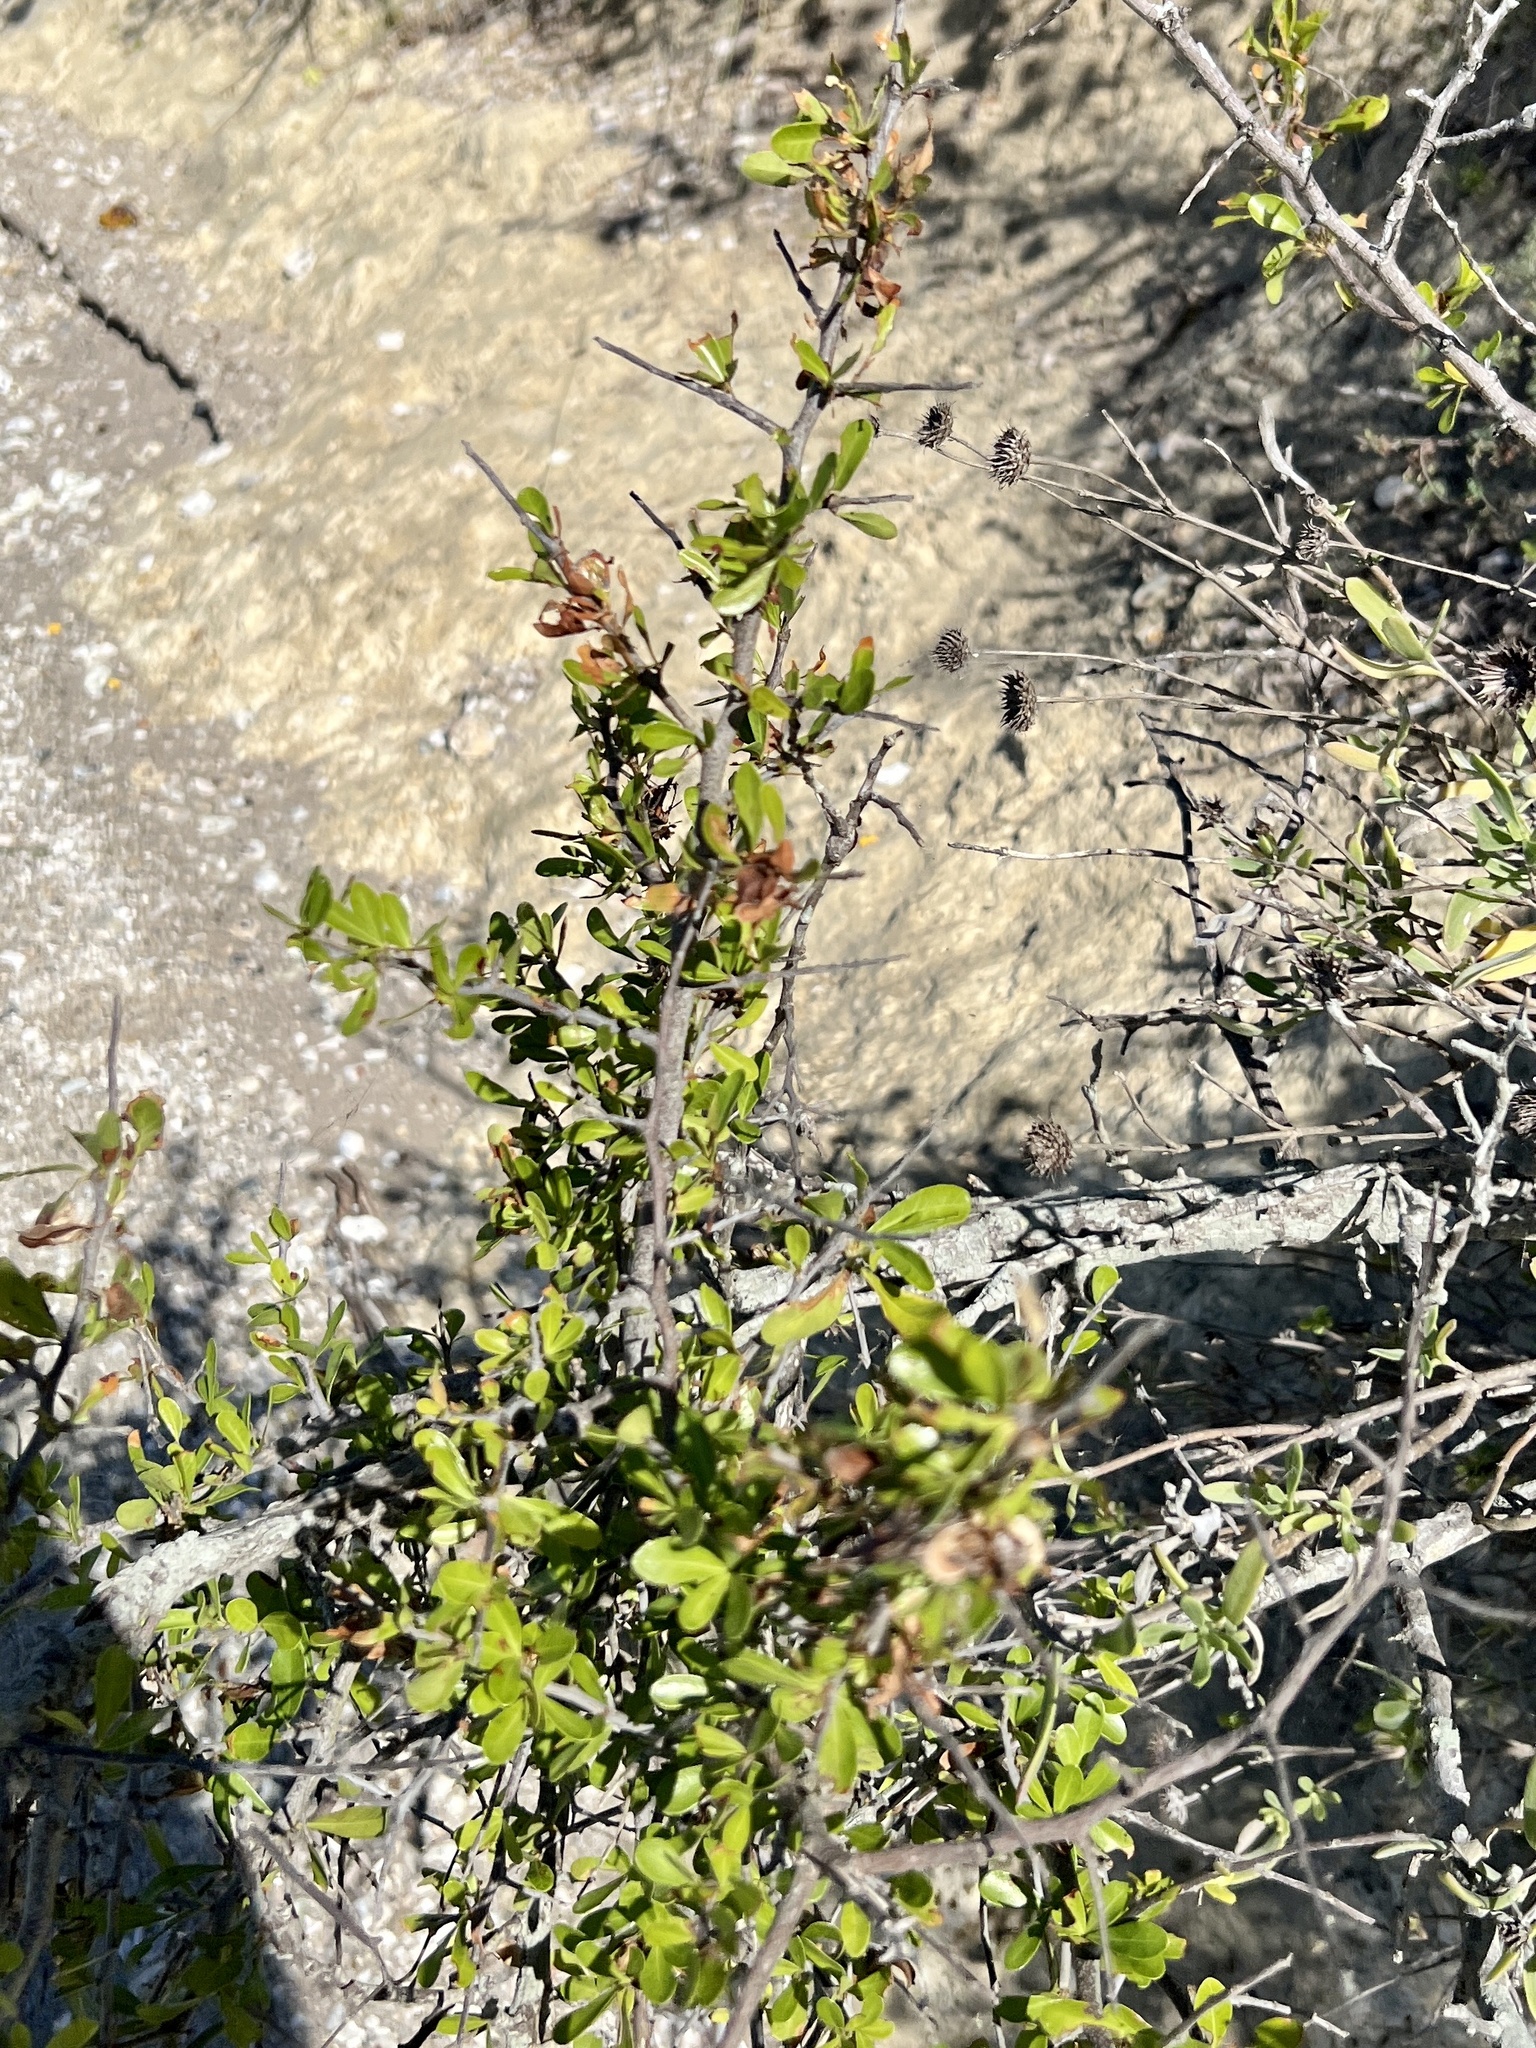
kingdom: Plantae
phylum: Tracheophyta
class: Magnoliopsida
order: Fabales
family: Fabaceae
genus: Vachellia
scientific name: Vachellia rigidula
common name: Blackbrush
